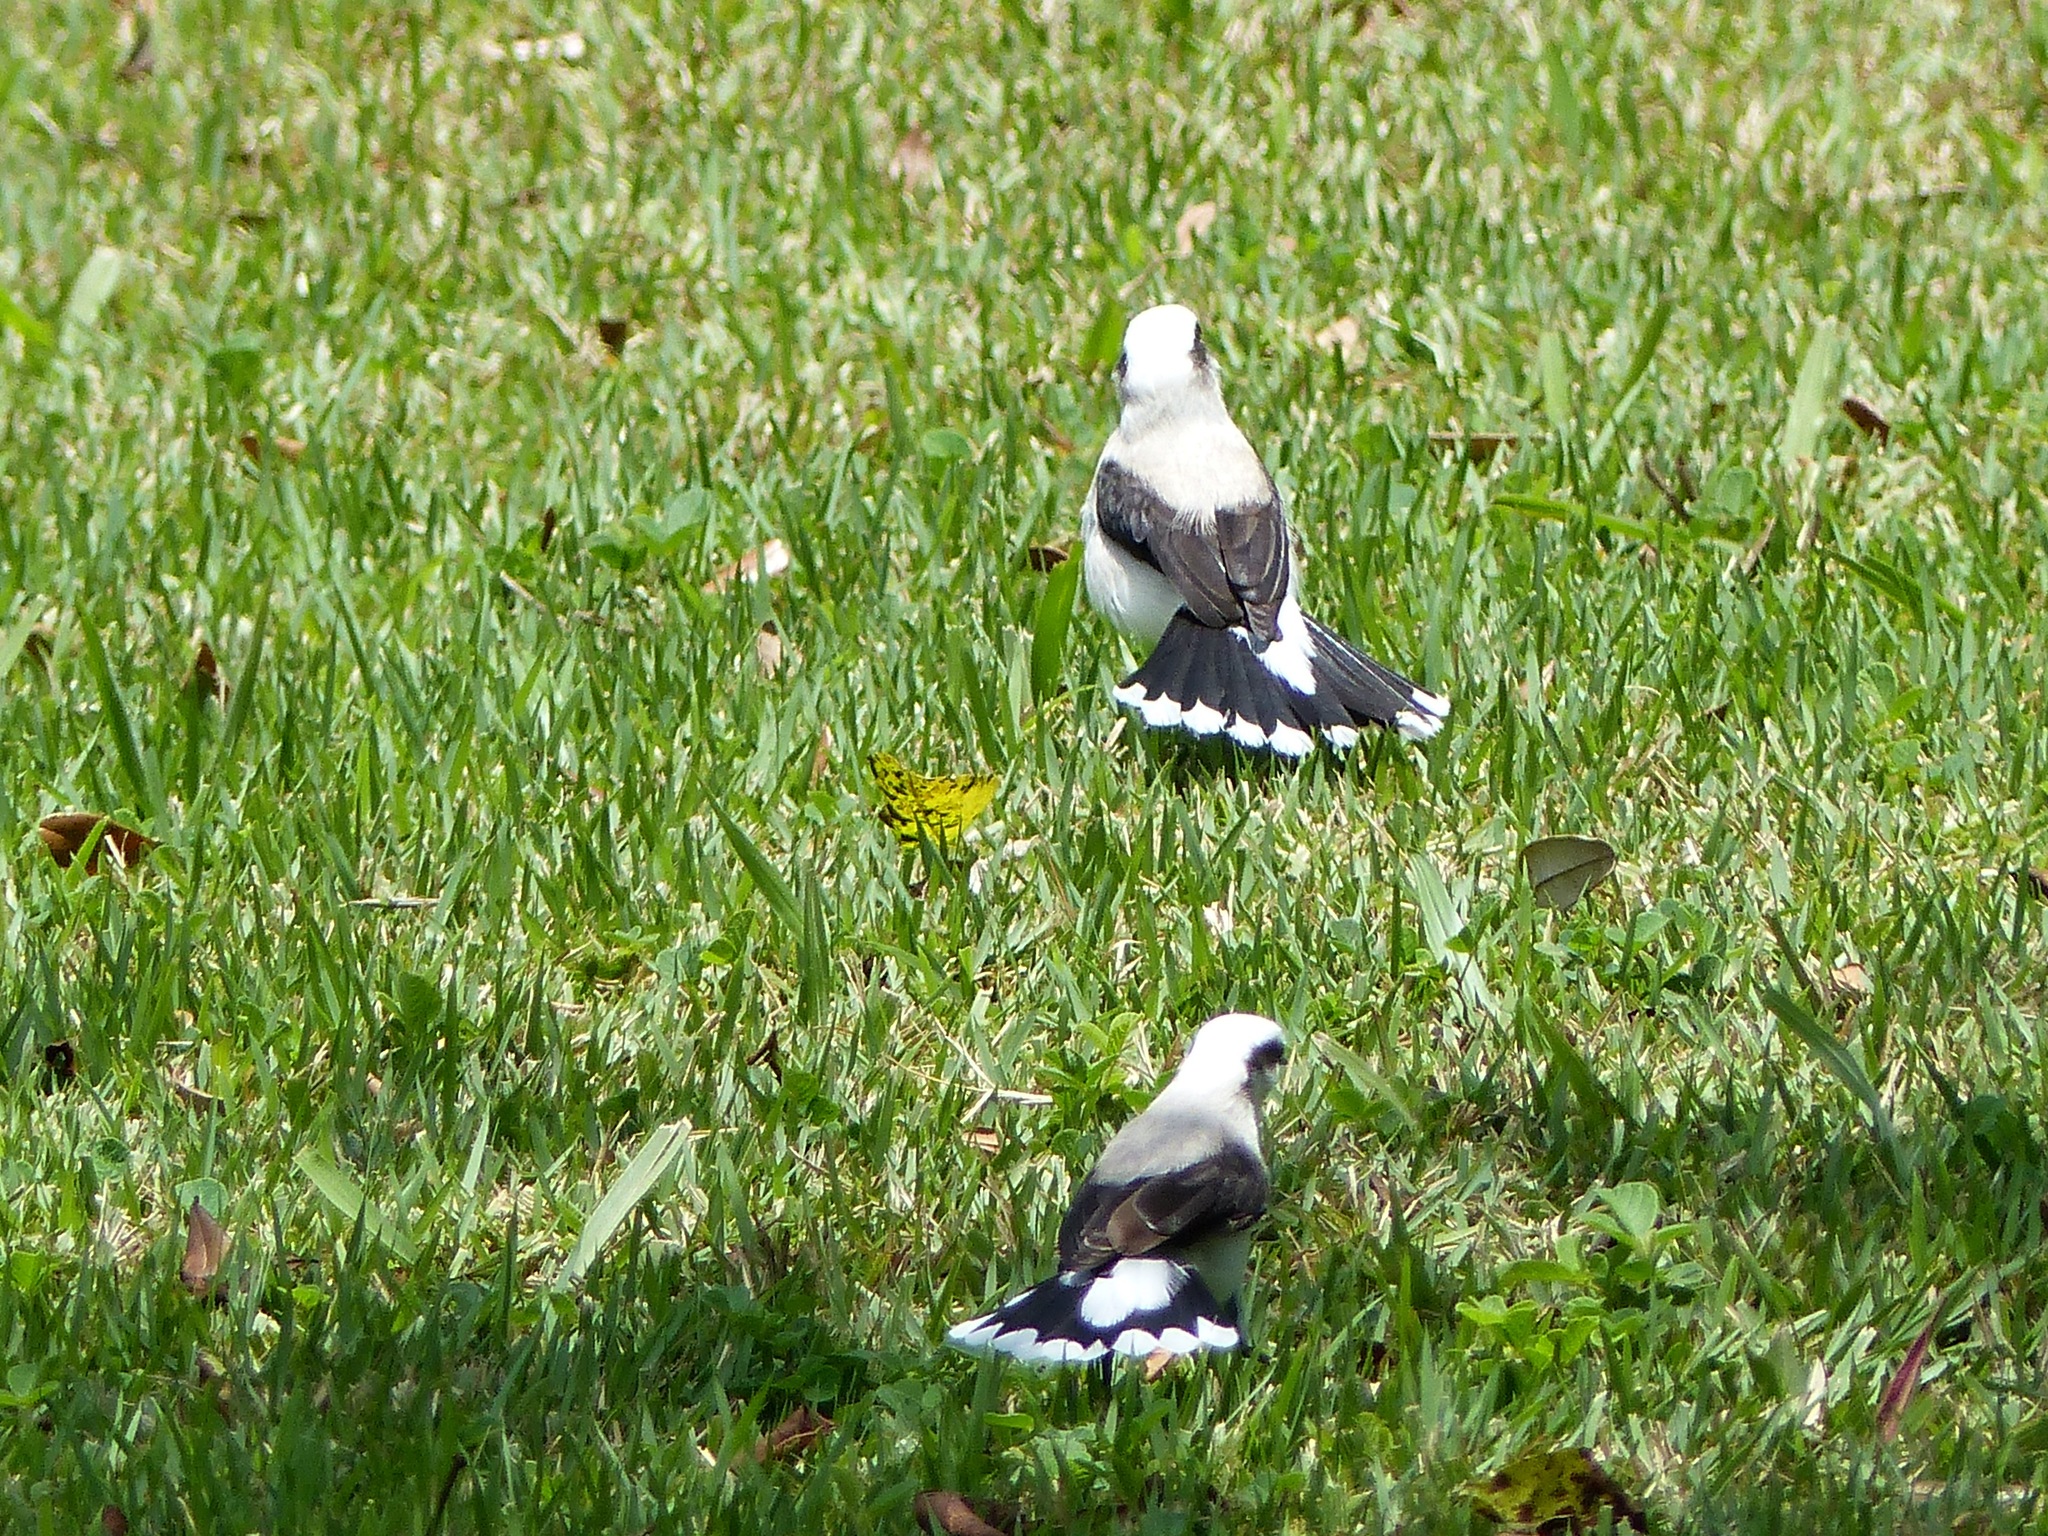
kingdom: Animalia
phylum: Chordata
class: Aves
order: Passeriformes
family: Tyrannidae
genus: Fluvicola
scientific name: Fluvicola nengeta
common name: Masked water tyrant
